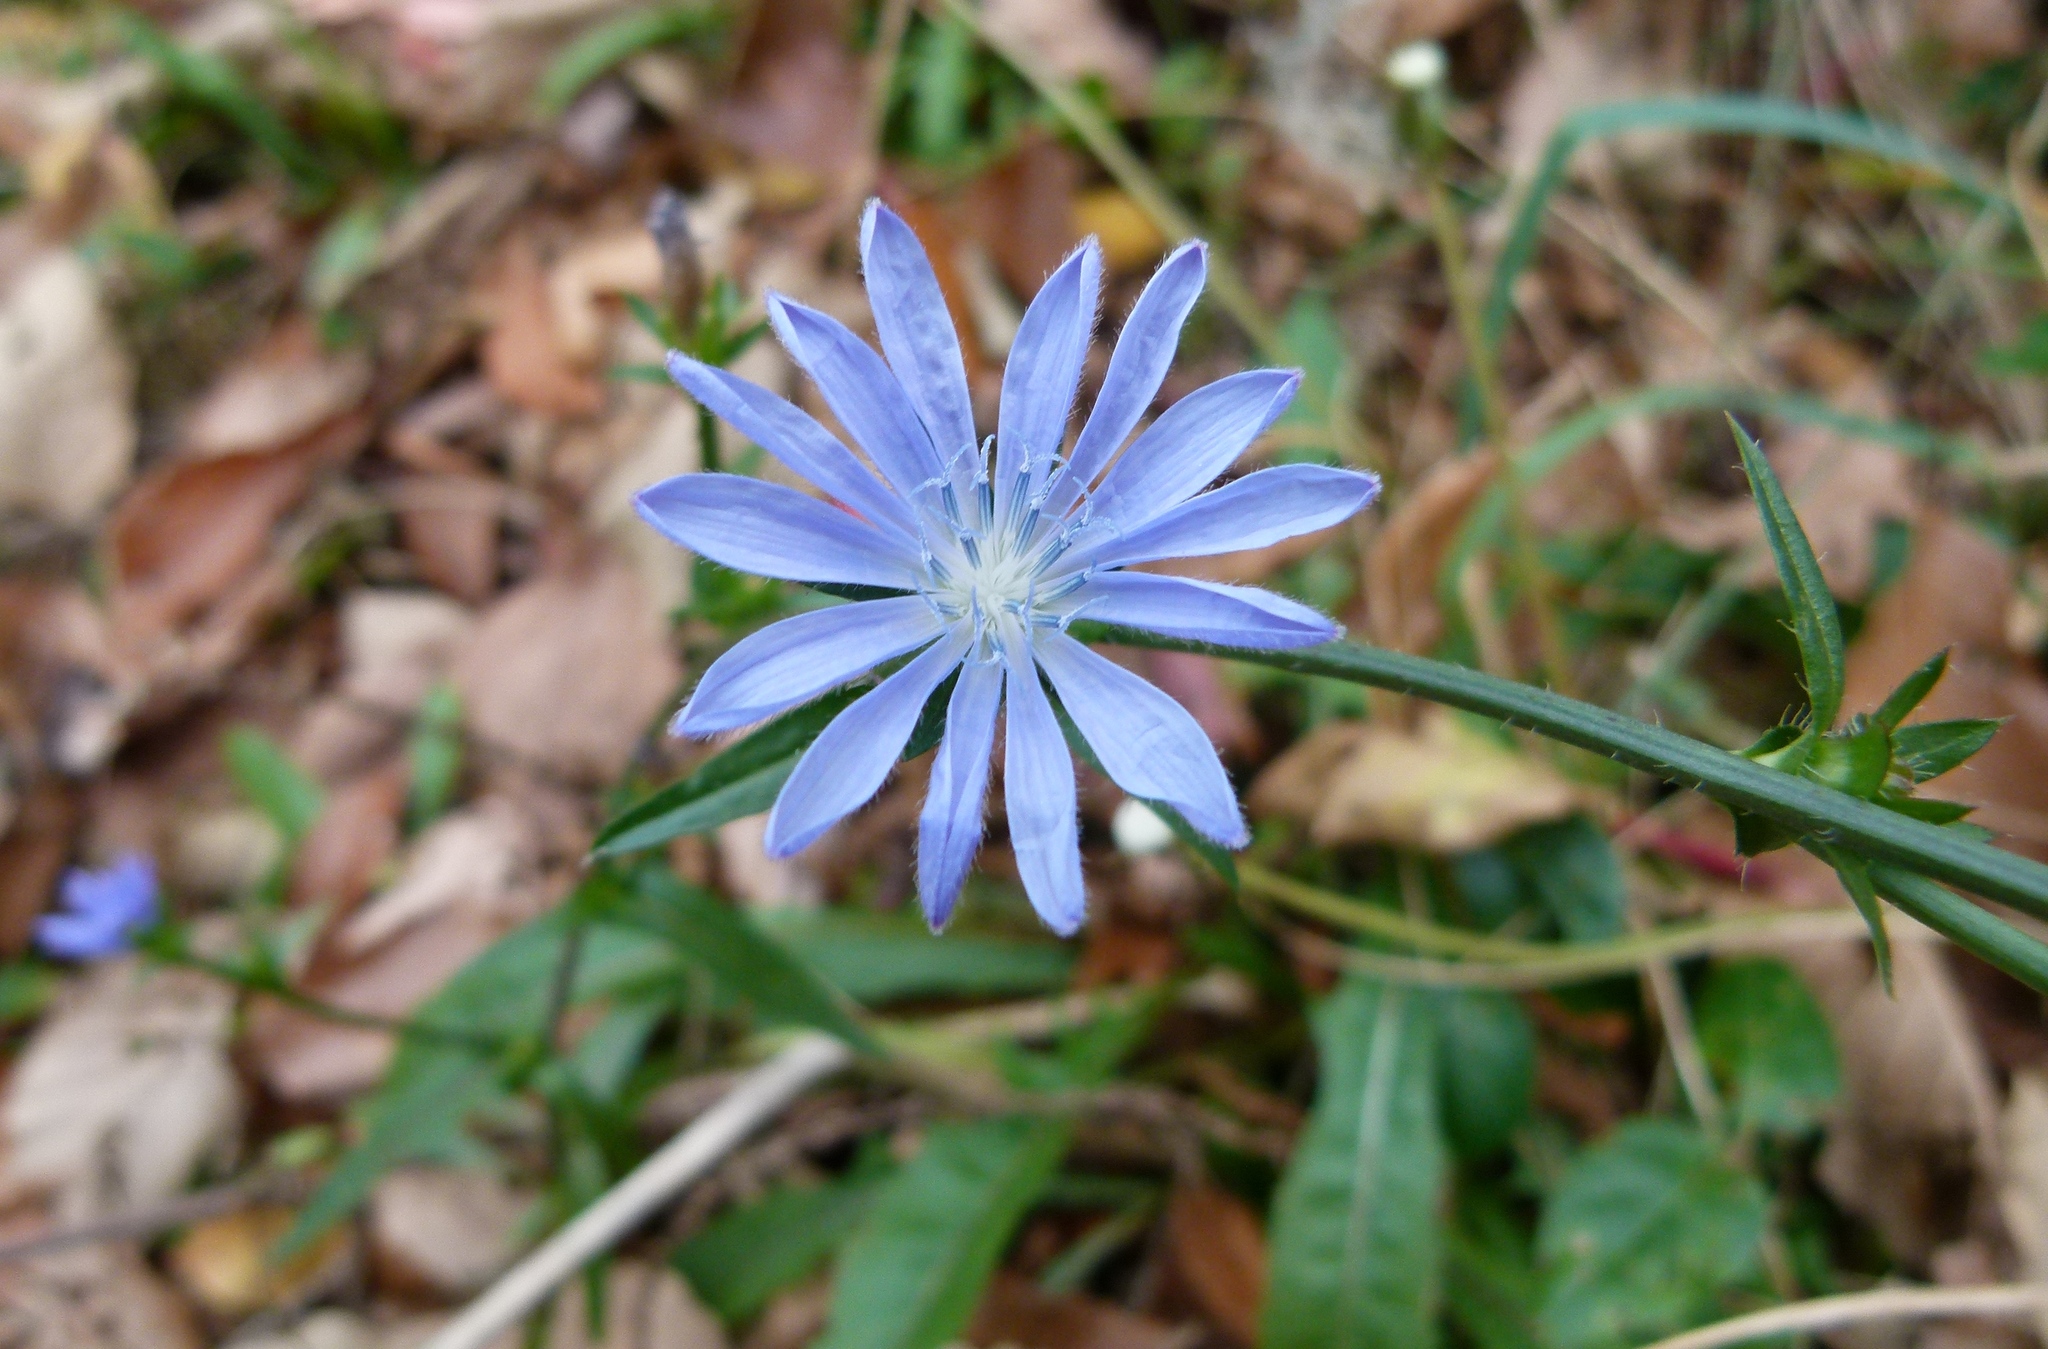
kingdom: Plantae
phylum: Tracheophyta
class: Magnoliopsida
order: Asterales
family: Asteraceae
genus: Cichorium
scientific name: Cichorium intybus
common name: Chicory
